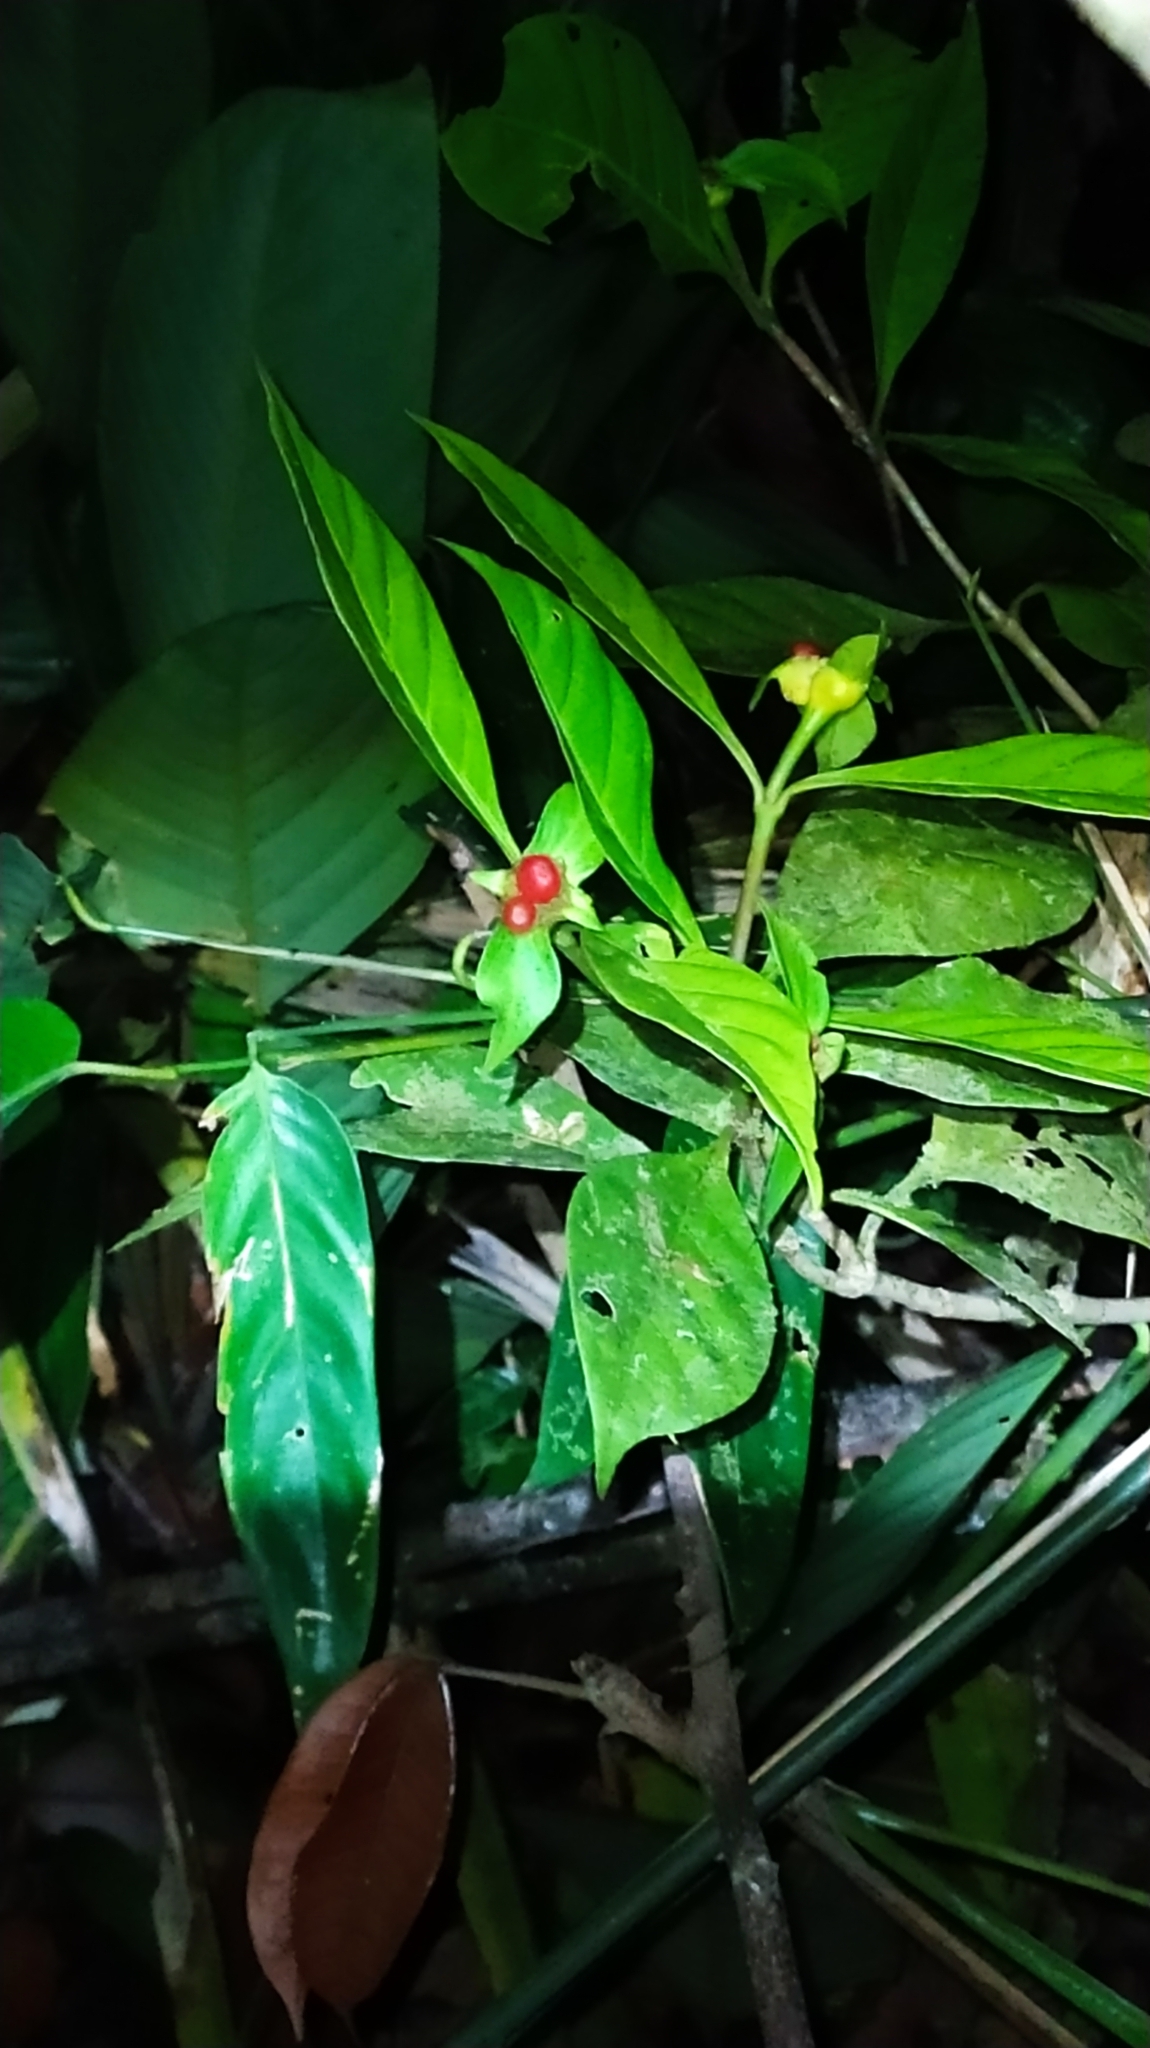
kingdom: Plantae
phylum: Tracheophyta
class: Magnoliopsida
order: Gentianales
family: Rubiaceae
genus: Carapichea
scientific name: Carapichea guianensis
